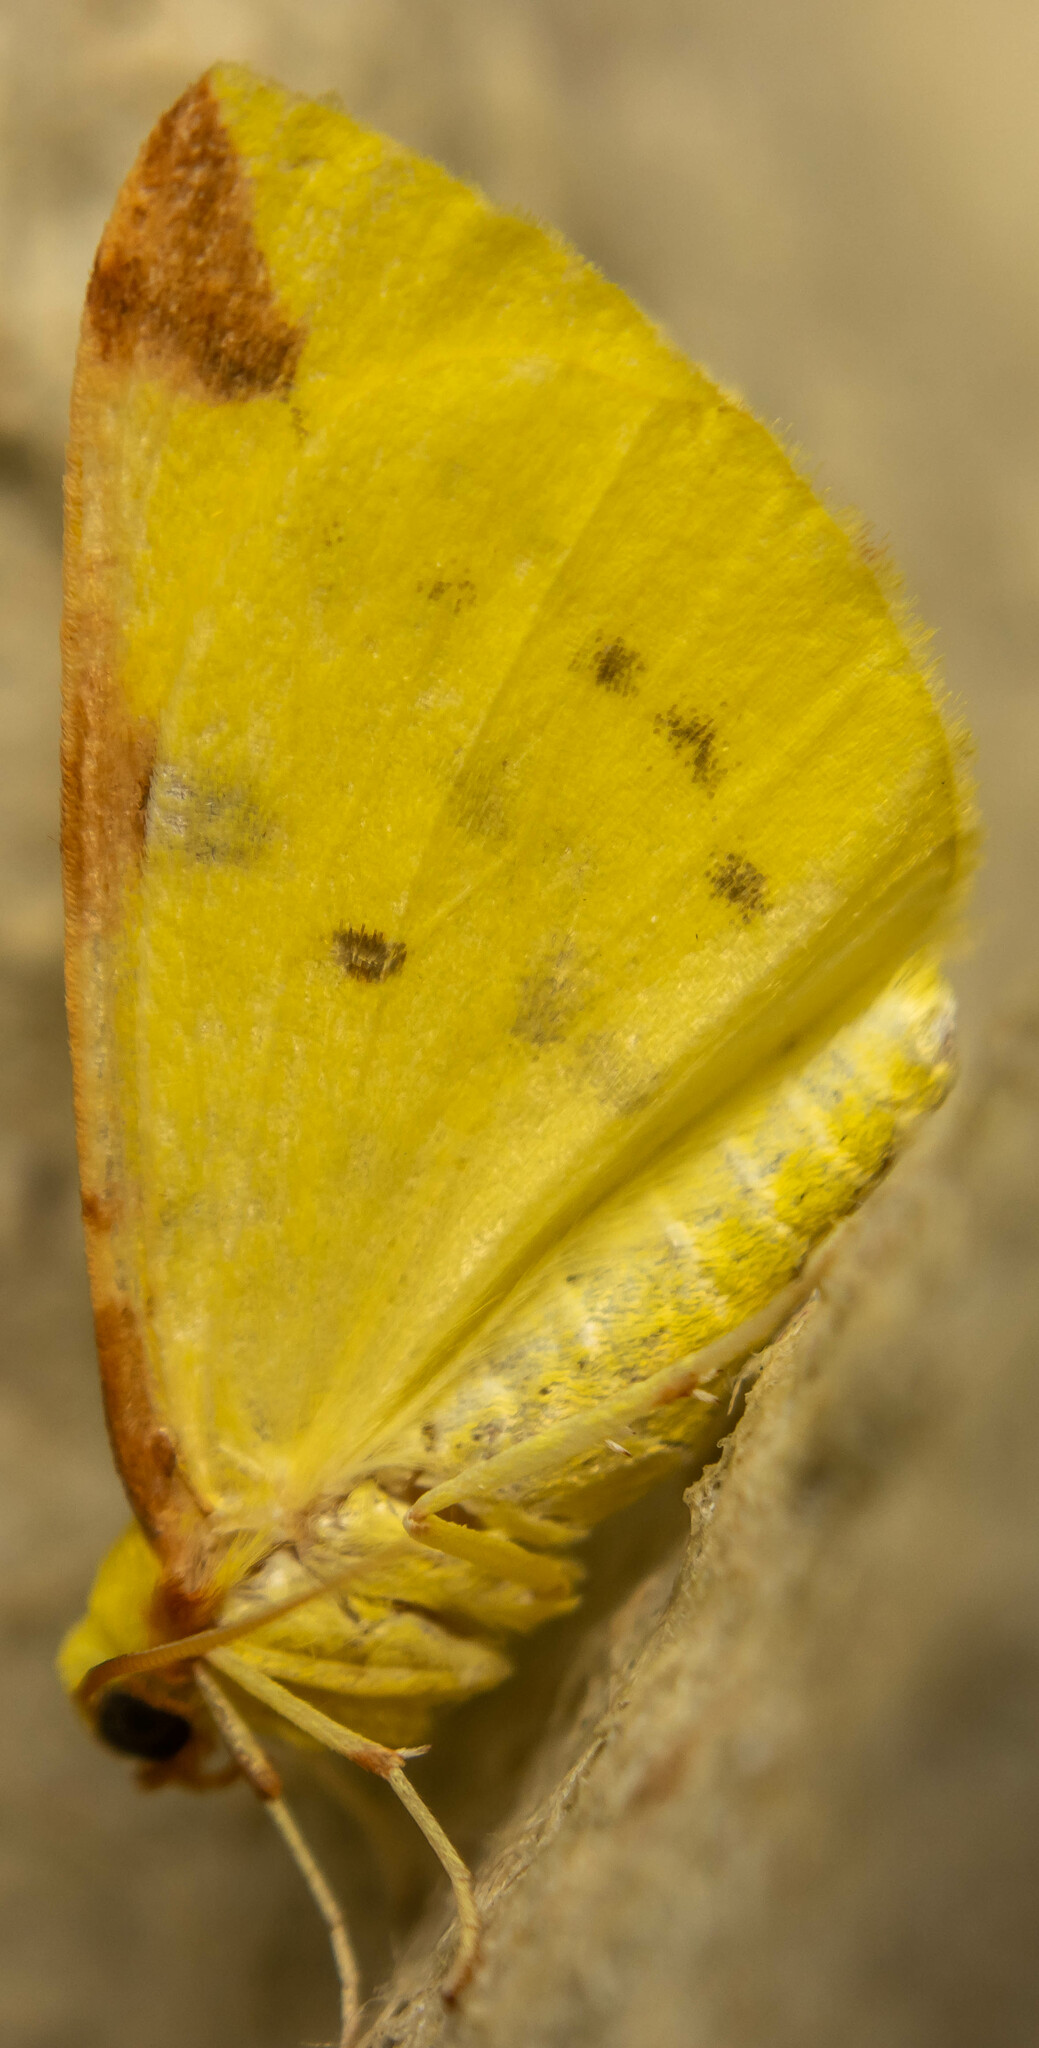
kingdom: Animalia
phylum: Arthropoda
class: Insecta
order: Lepidoptera
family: Geometridae
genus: Opisthograptis
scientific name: Opisthograptis luteolata
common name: Brimstone moth
